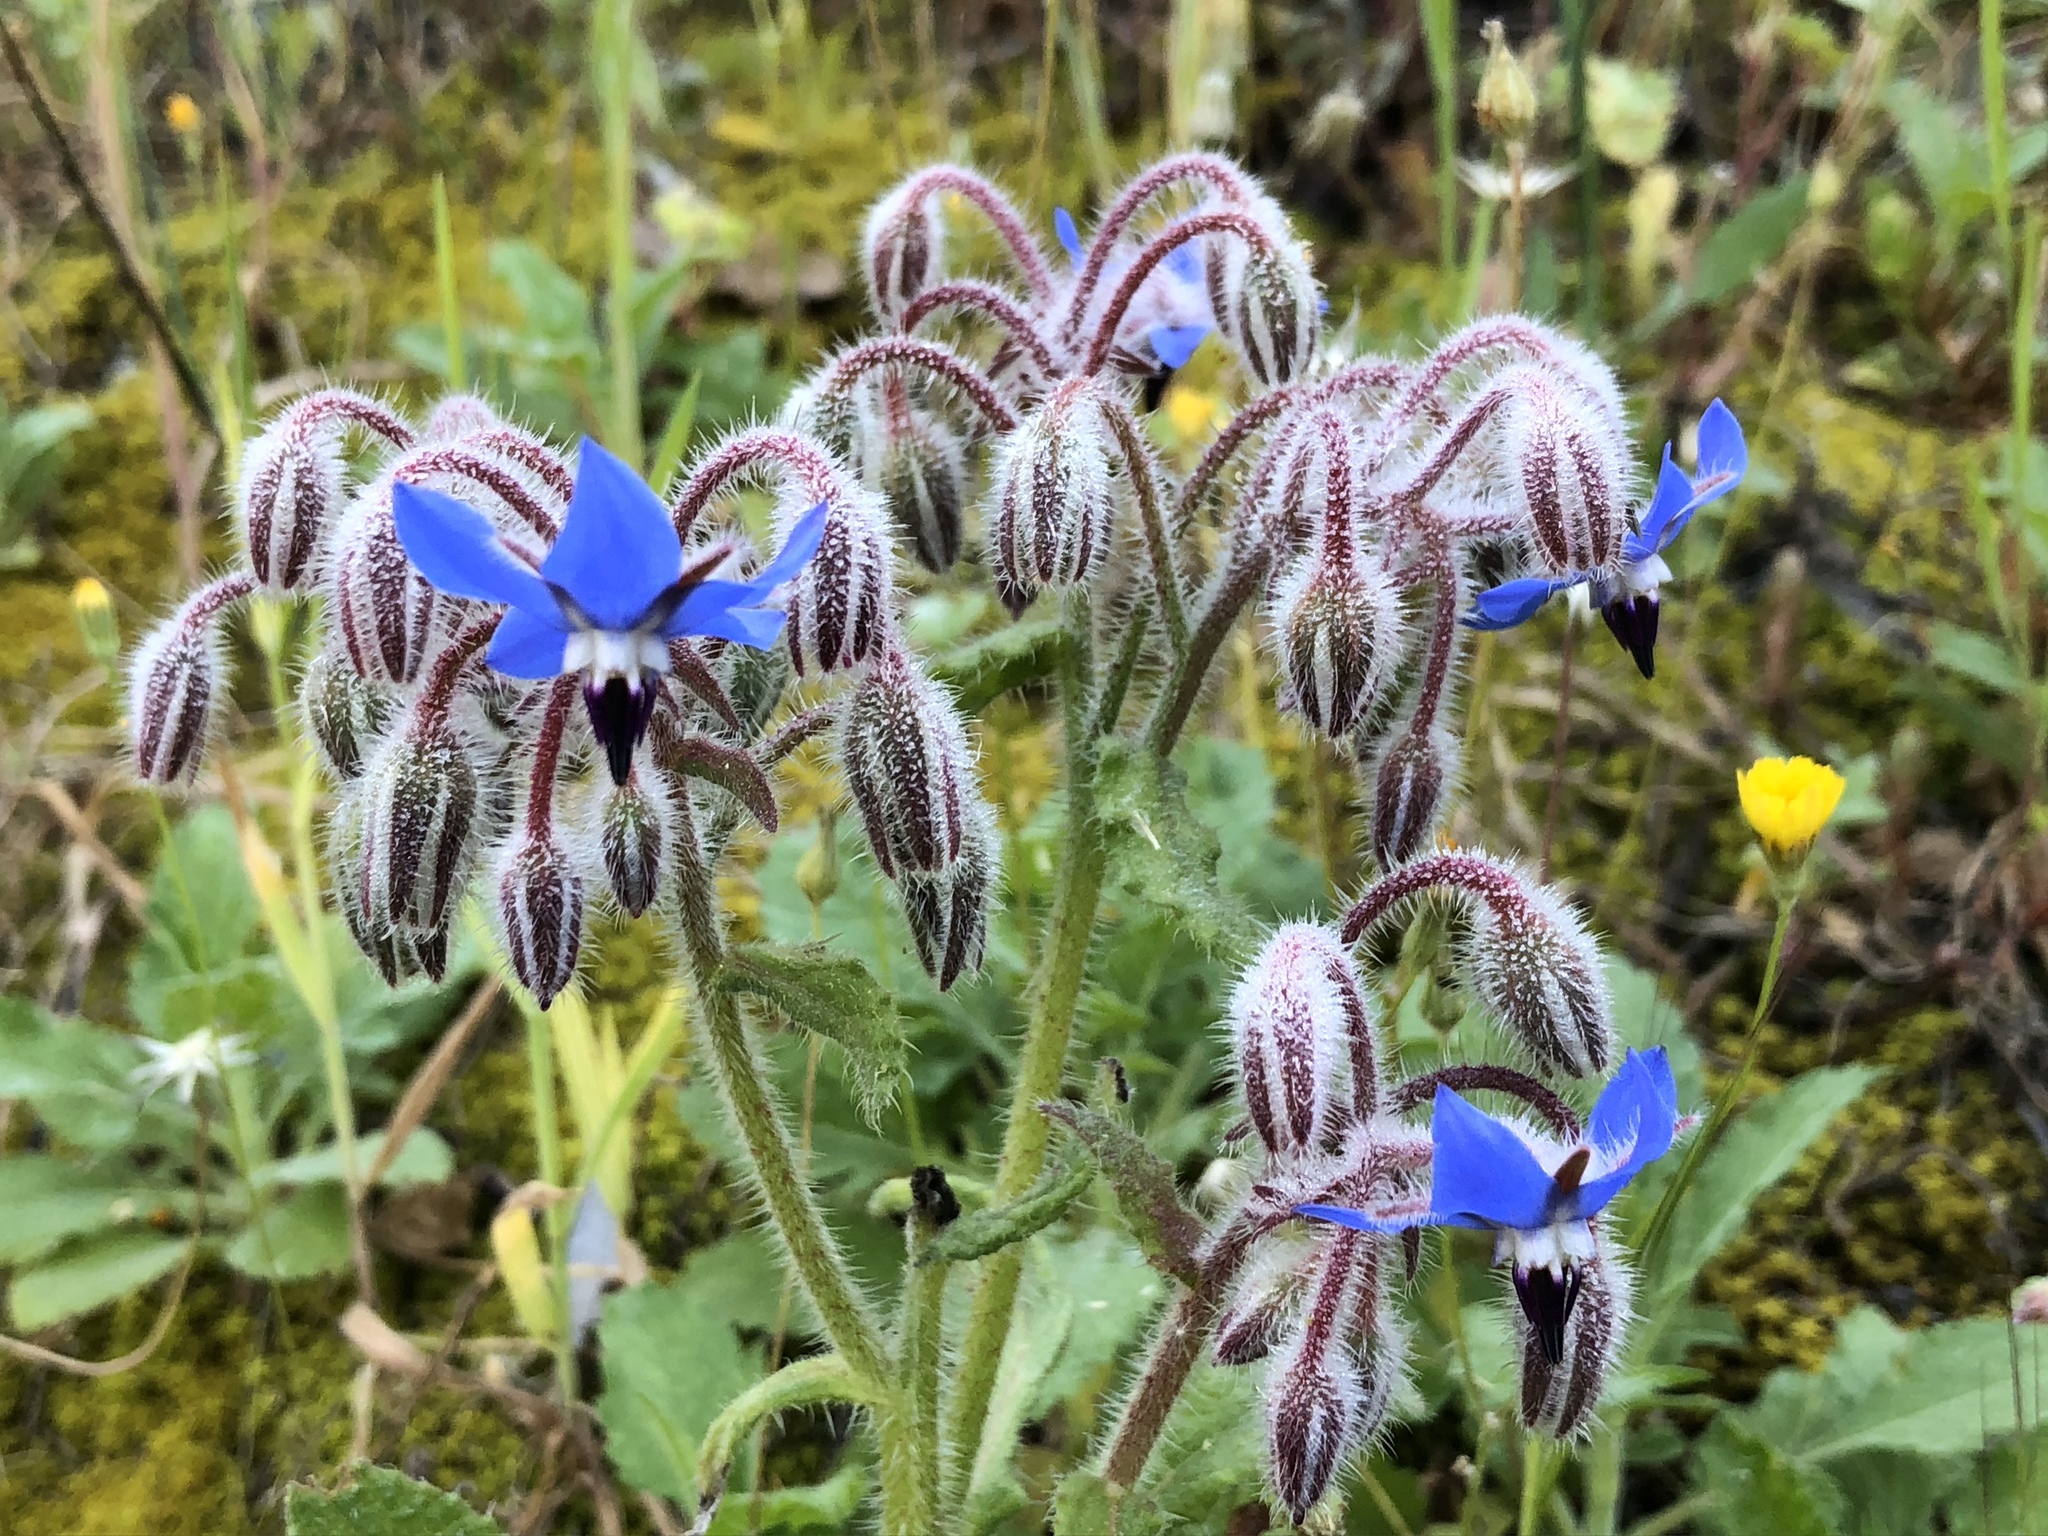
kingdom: Plantae
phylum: Tracheophyta
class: Magnoliopsida
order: Boraginales
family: Boraginaceae
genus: Borago
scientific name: Borago officinalis
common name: Borage
